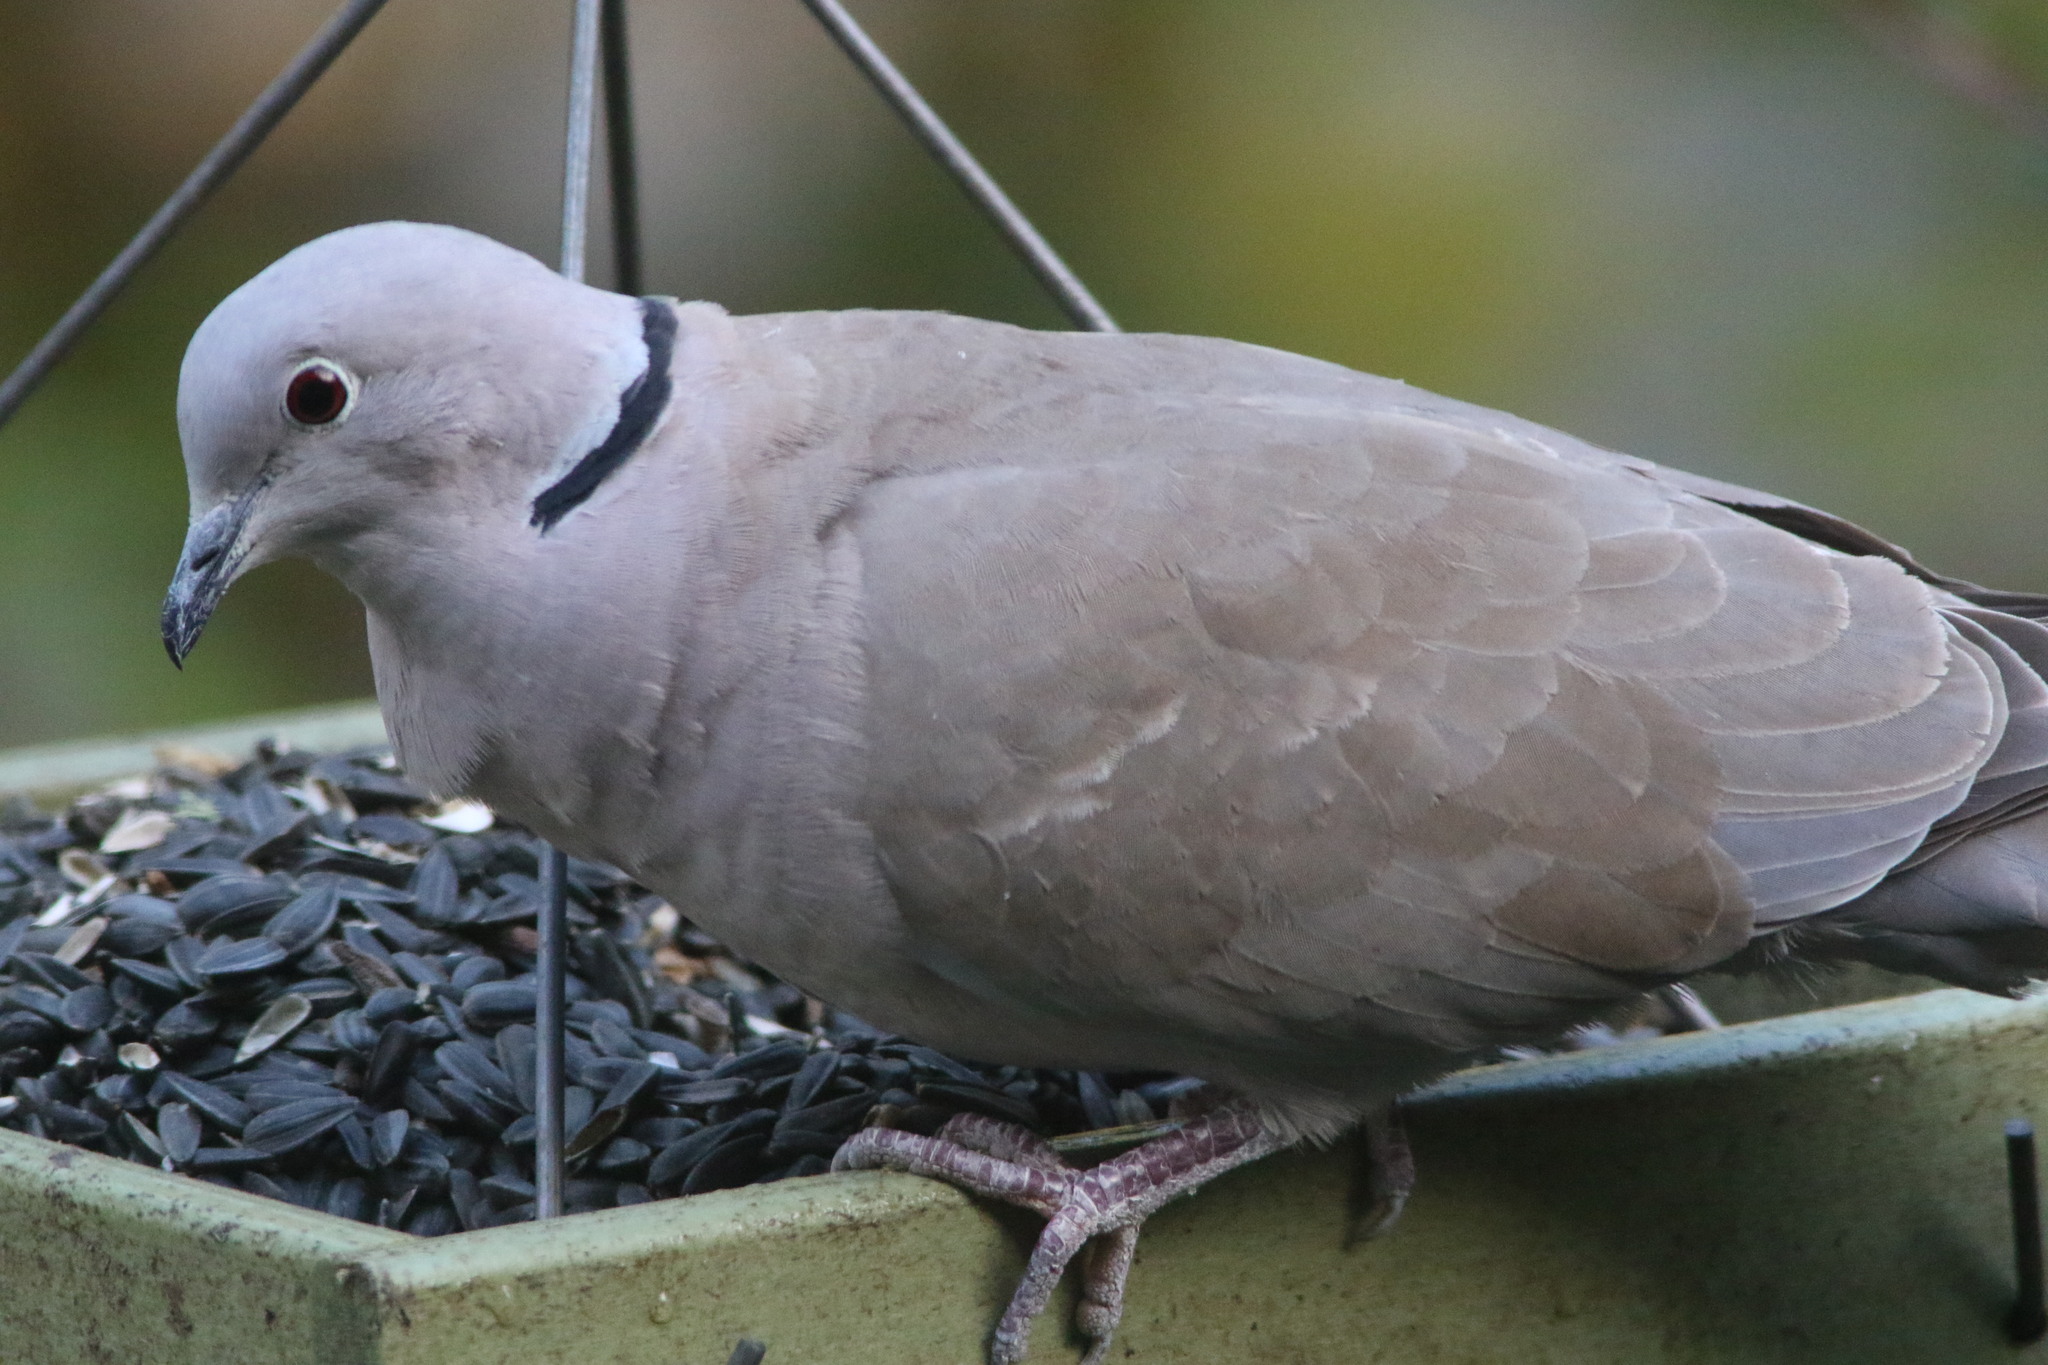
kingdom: Animalia
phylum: Chordata
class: Aves
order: Columbiformes
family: Columbidae
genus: Streptopelia
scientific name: Streptopelia decaocto
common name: Eurasian collared dove
